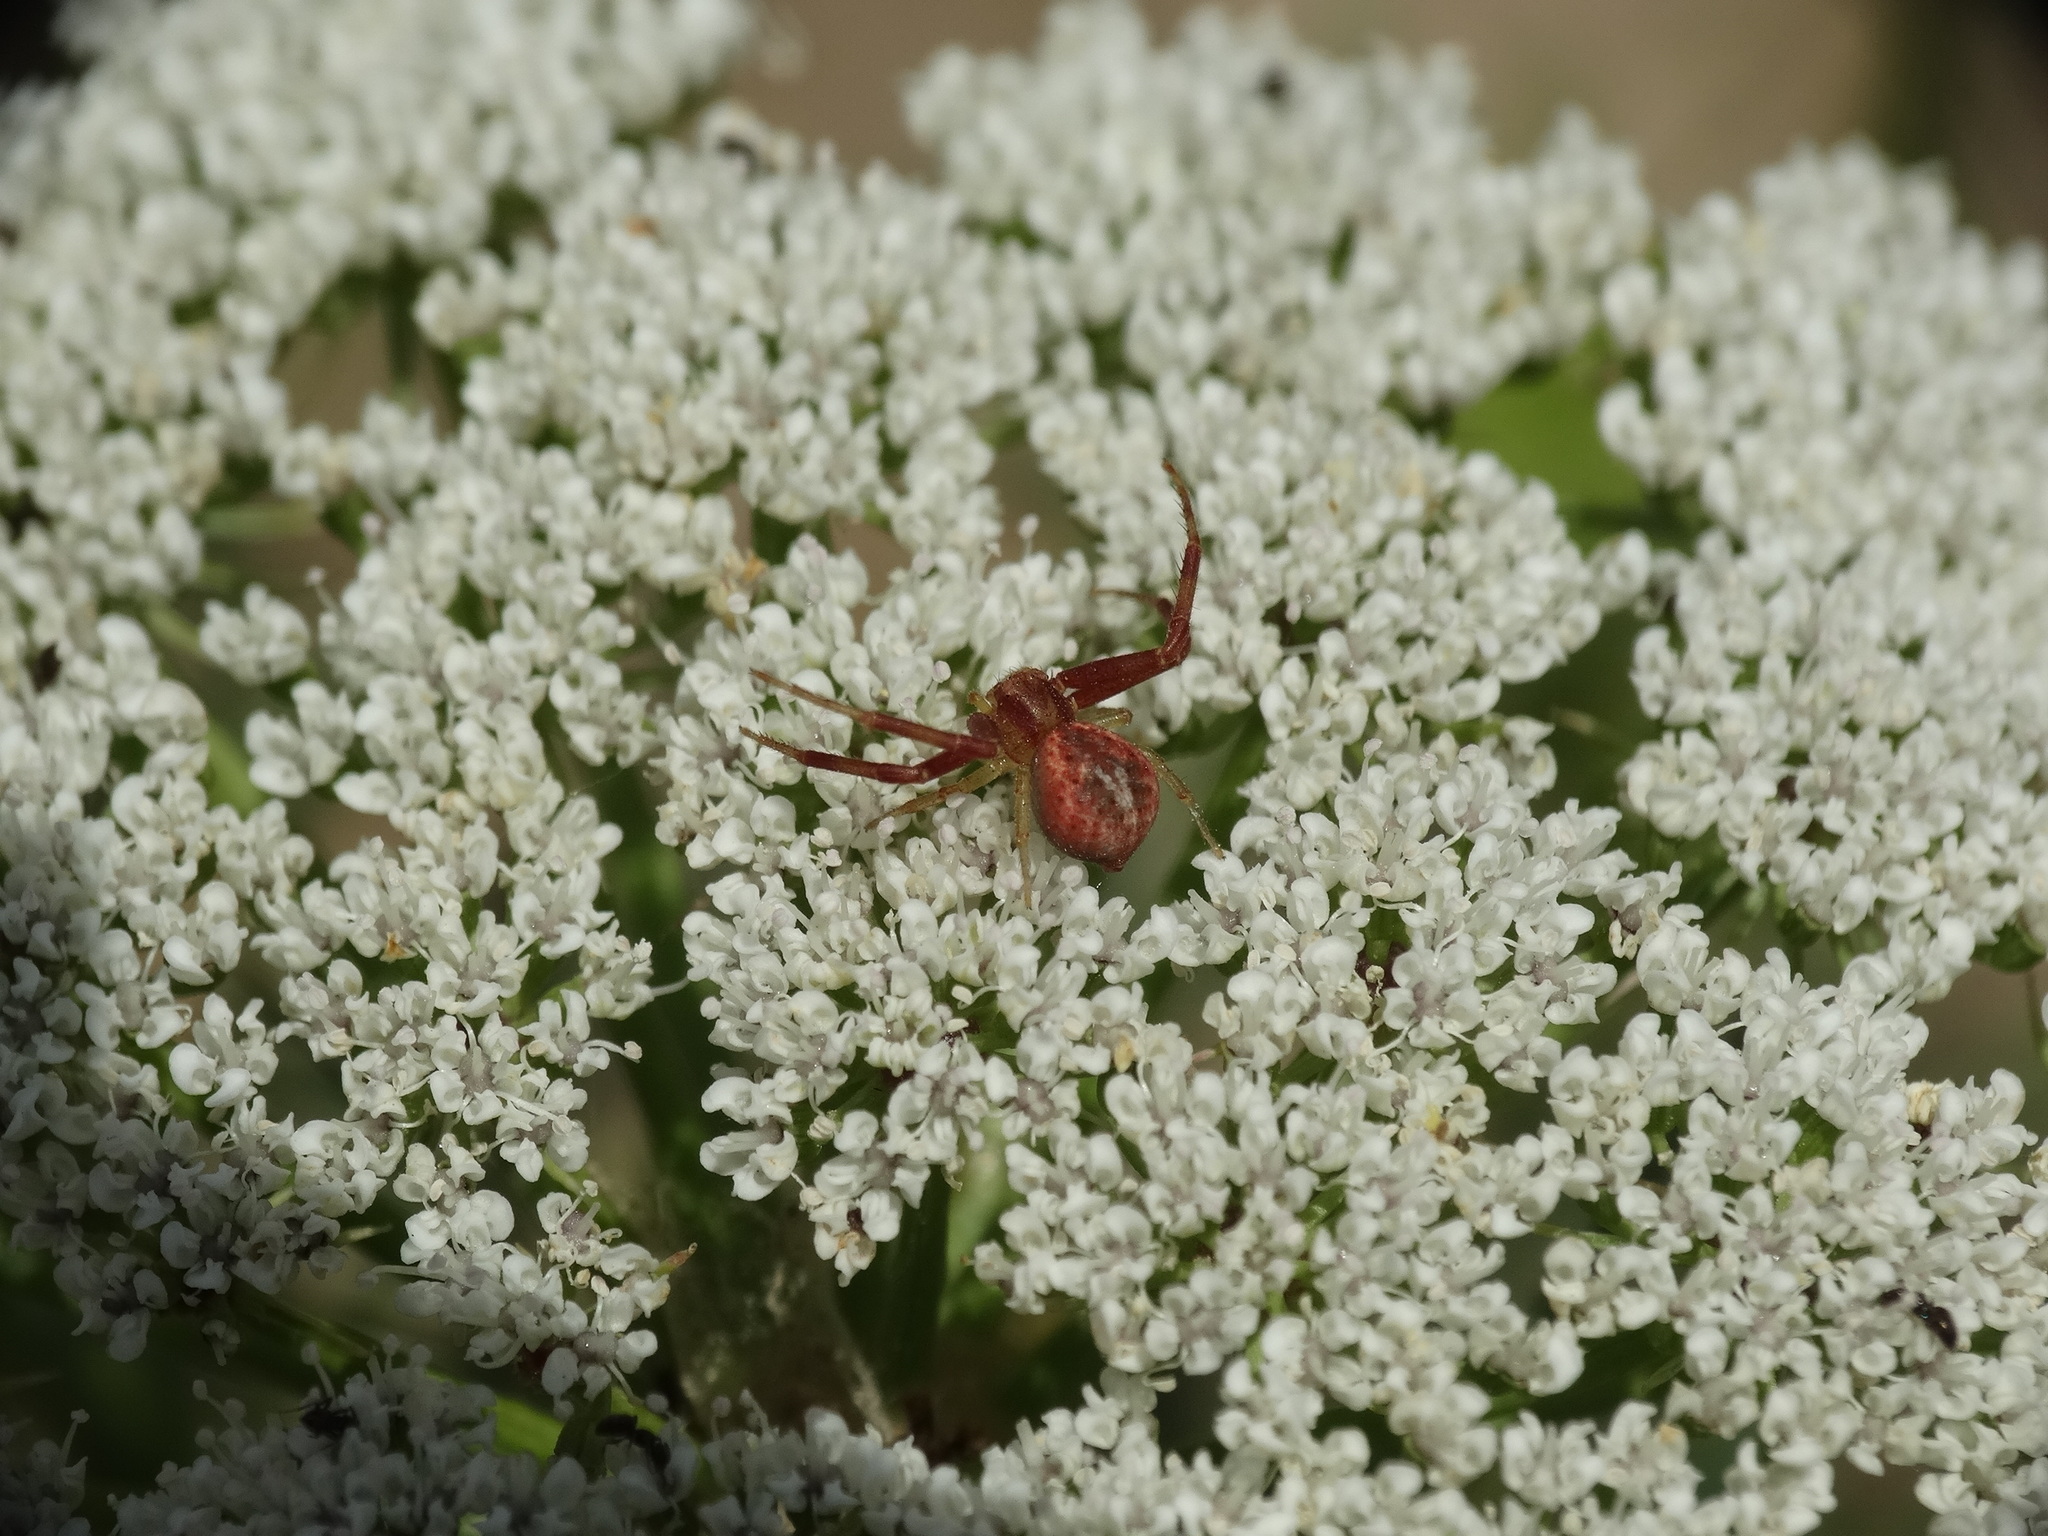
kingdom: Animalia
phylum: Arthropoda
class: Arachnida
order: Araneae
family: Thomisidae
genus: Misumenops
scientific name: Misumenops
